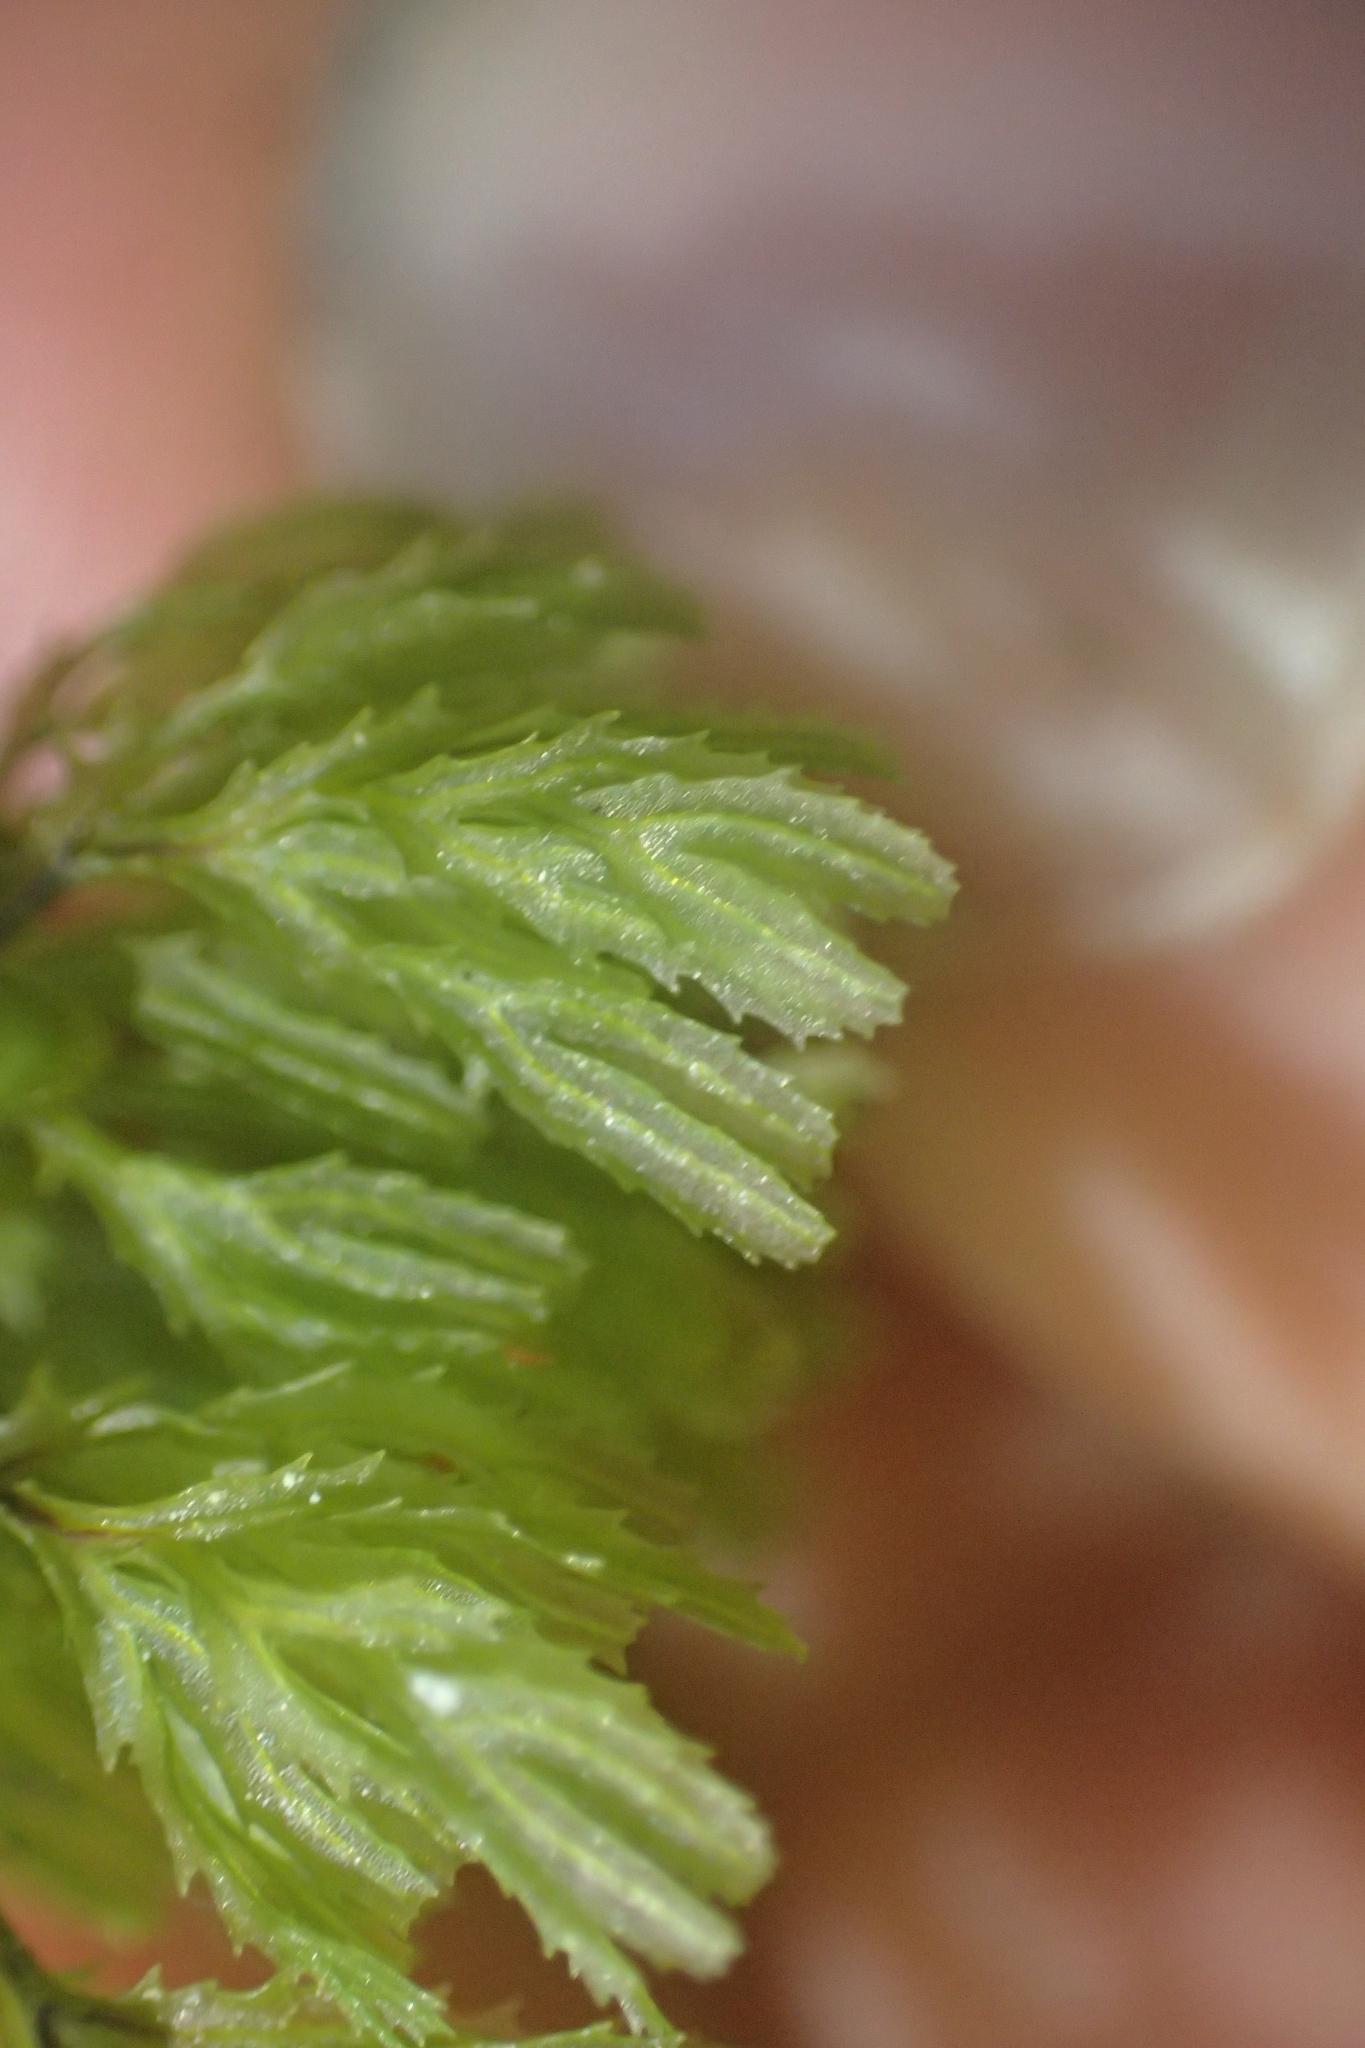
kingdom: Plantae
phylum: Tracheophyta
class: Polypodiopsida
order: Hymenophyllales
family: Hymenophyllaceae
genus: Hymenophyllum
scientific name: Hymenophyllum multifidum
